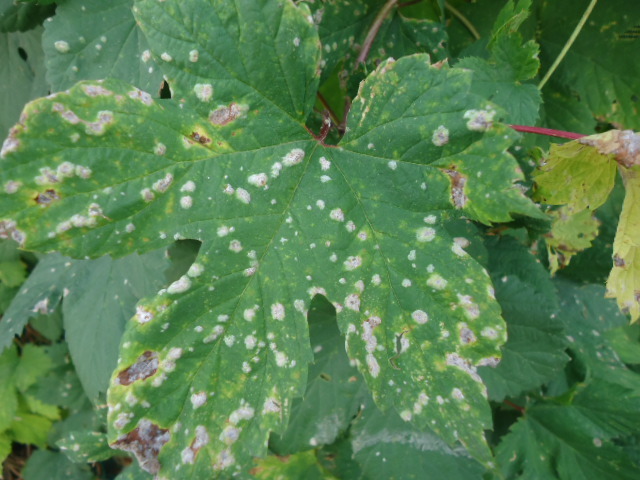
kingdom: Plantae
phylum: Tracheophyta
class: Magnoliopsida
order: Rosales
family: Cannabaceae
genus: Humulus
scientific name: Humulus lupulus
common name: Hop
